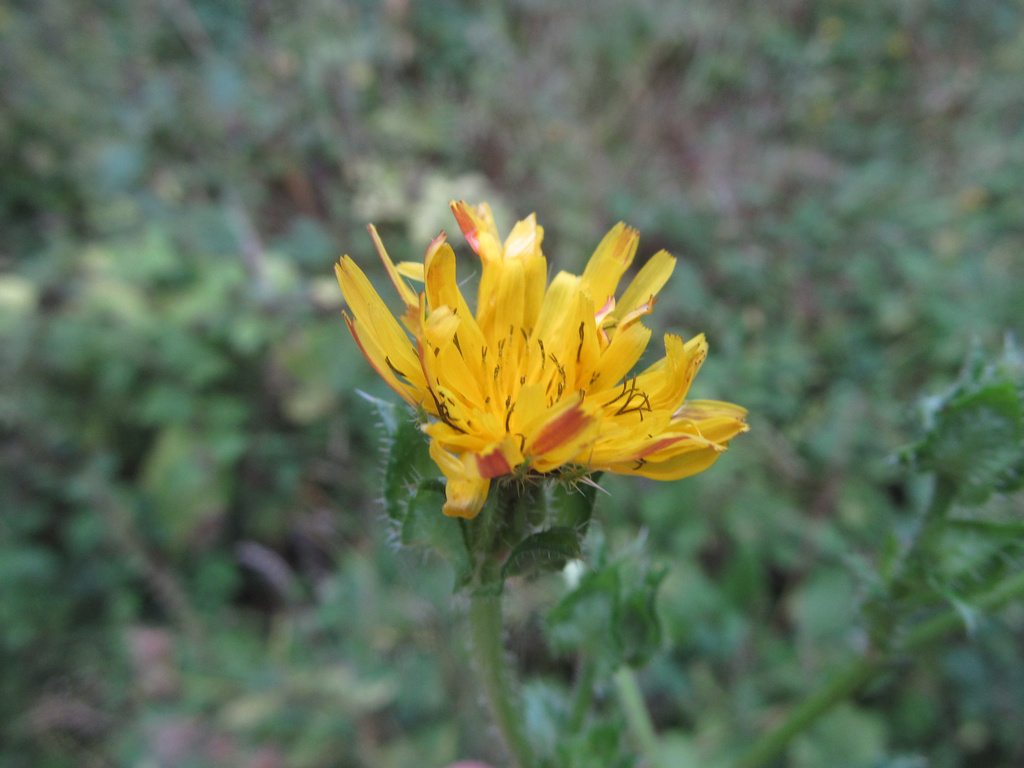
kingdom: Plantae
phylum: Tracheophyta
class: Magnoliopsida
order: Asterales
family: Asteraceae
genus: Helminthotheca
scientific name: Helminthotheca echioides
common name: Ox-tongue
